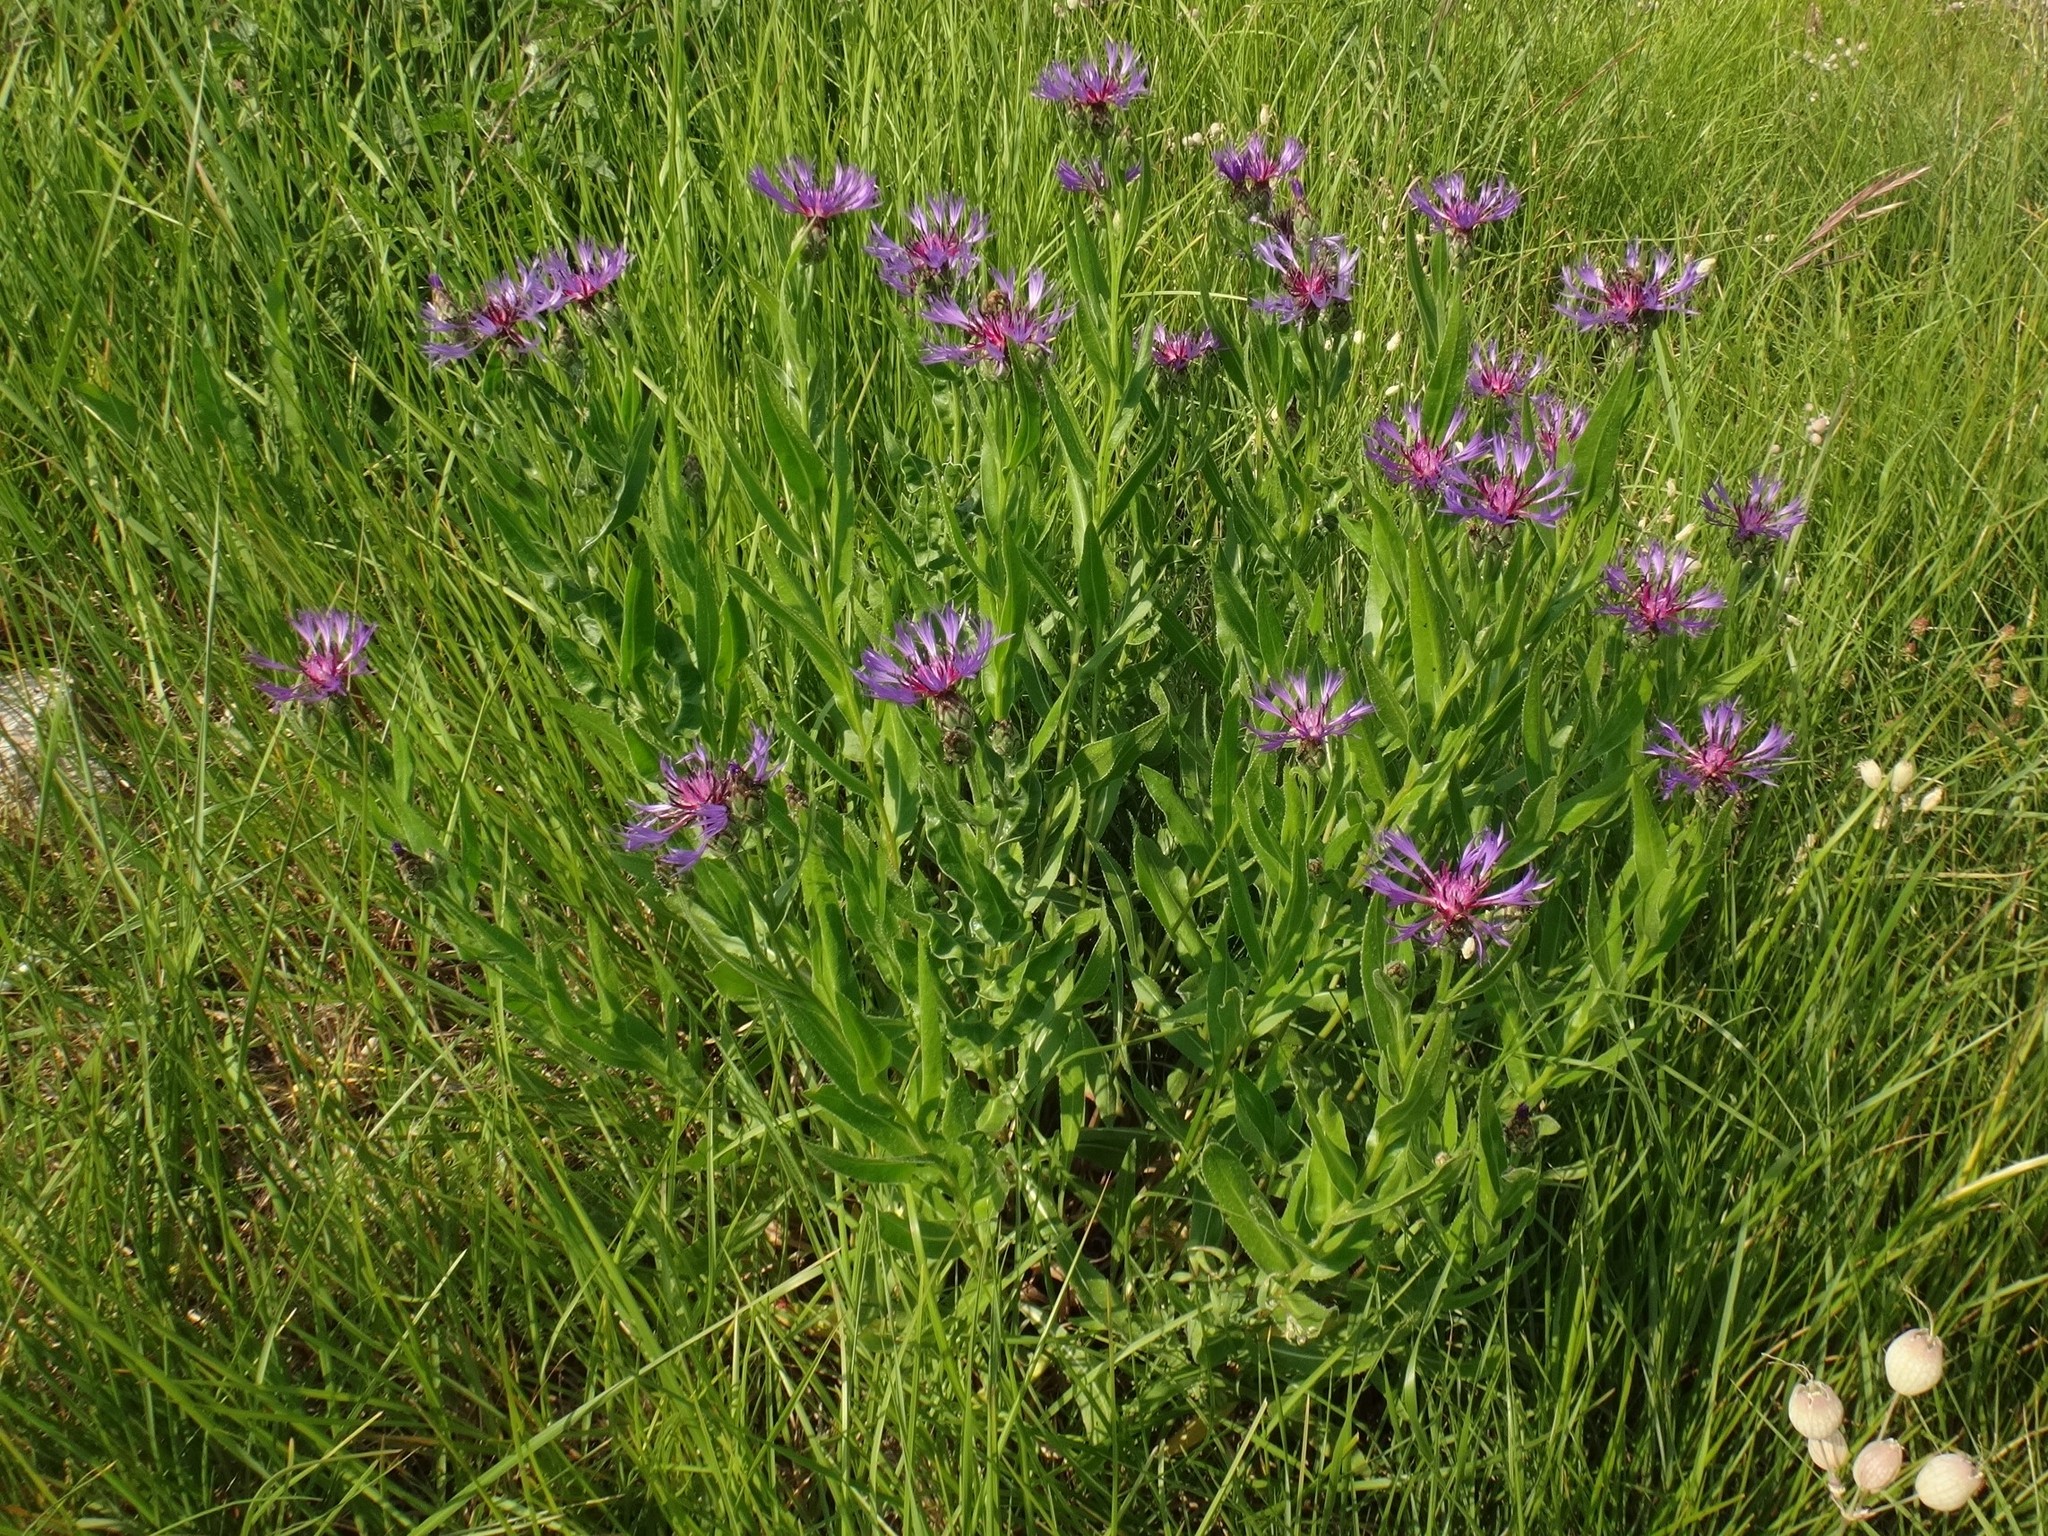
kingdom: Plantae
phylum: Tracheophyta
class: Magnoliopsida
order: Asterales
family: Asteraceae
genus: Centaurea
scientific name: Centaurea triumfettii
